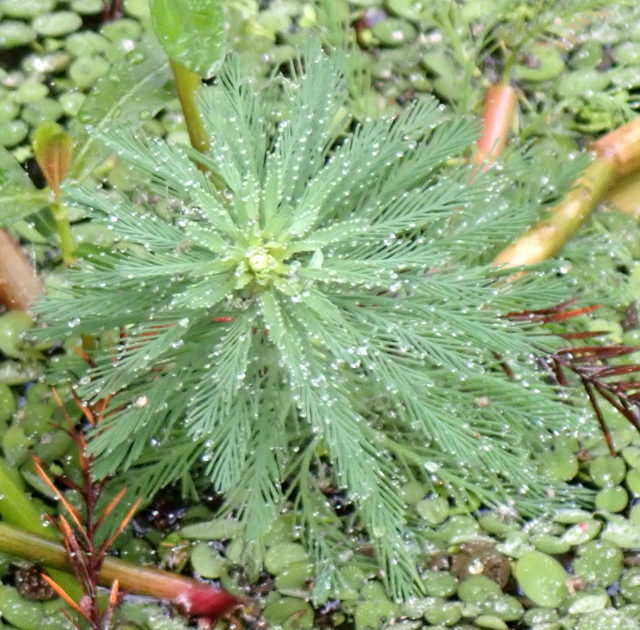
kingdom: Plantae
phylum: Tracheophyta
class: Magnoliopsida
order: Saxifragales
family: Haloragaceae
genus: Myriophyllum
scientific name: Myriophyllum aquaticum
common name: Parrot's feather
